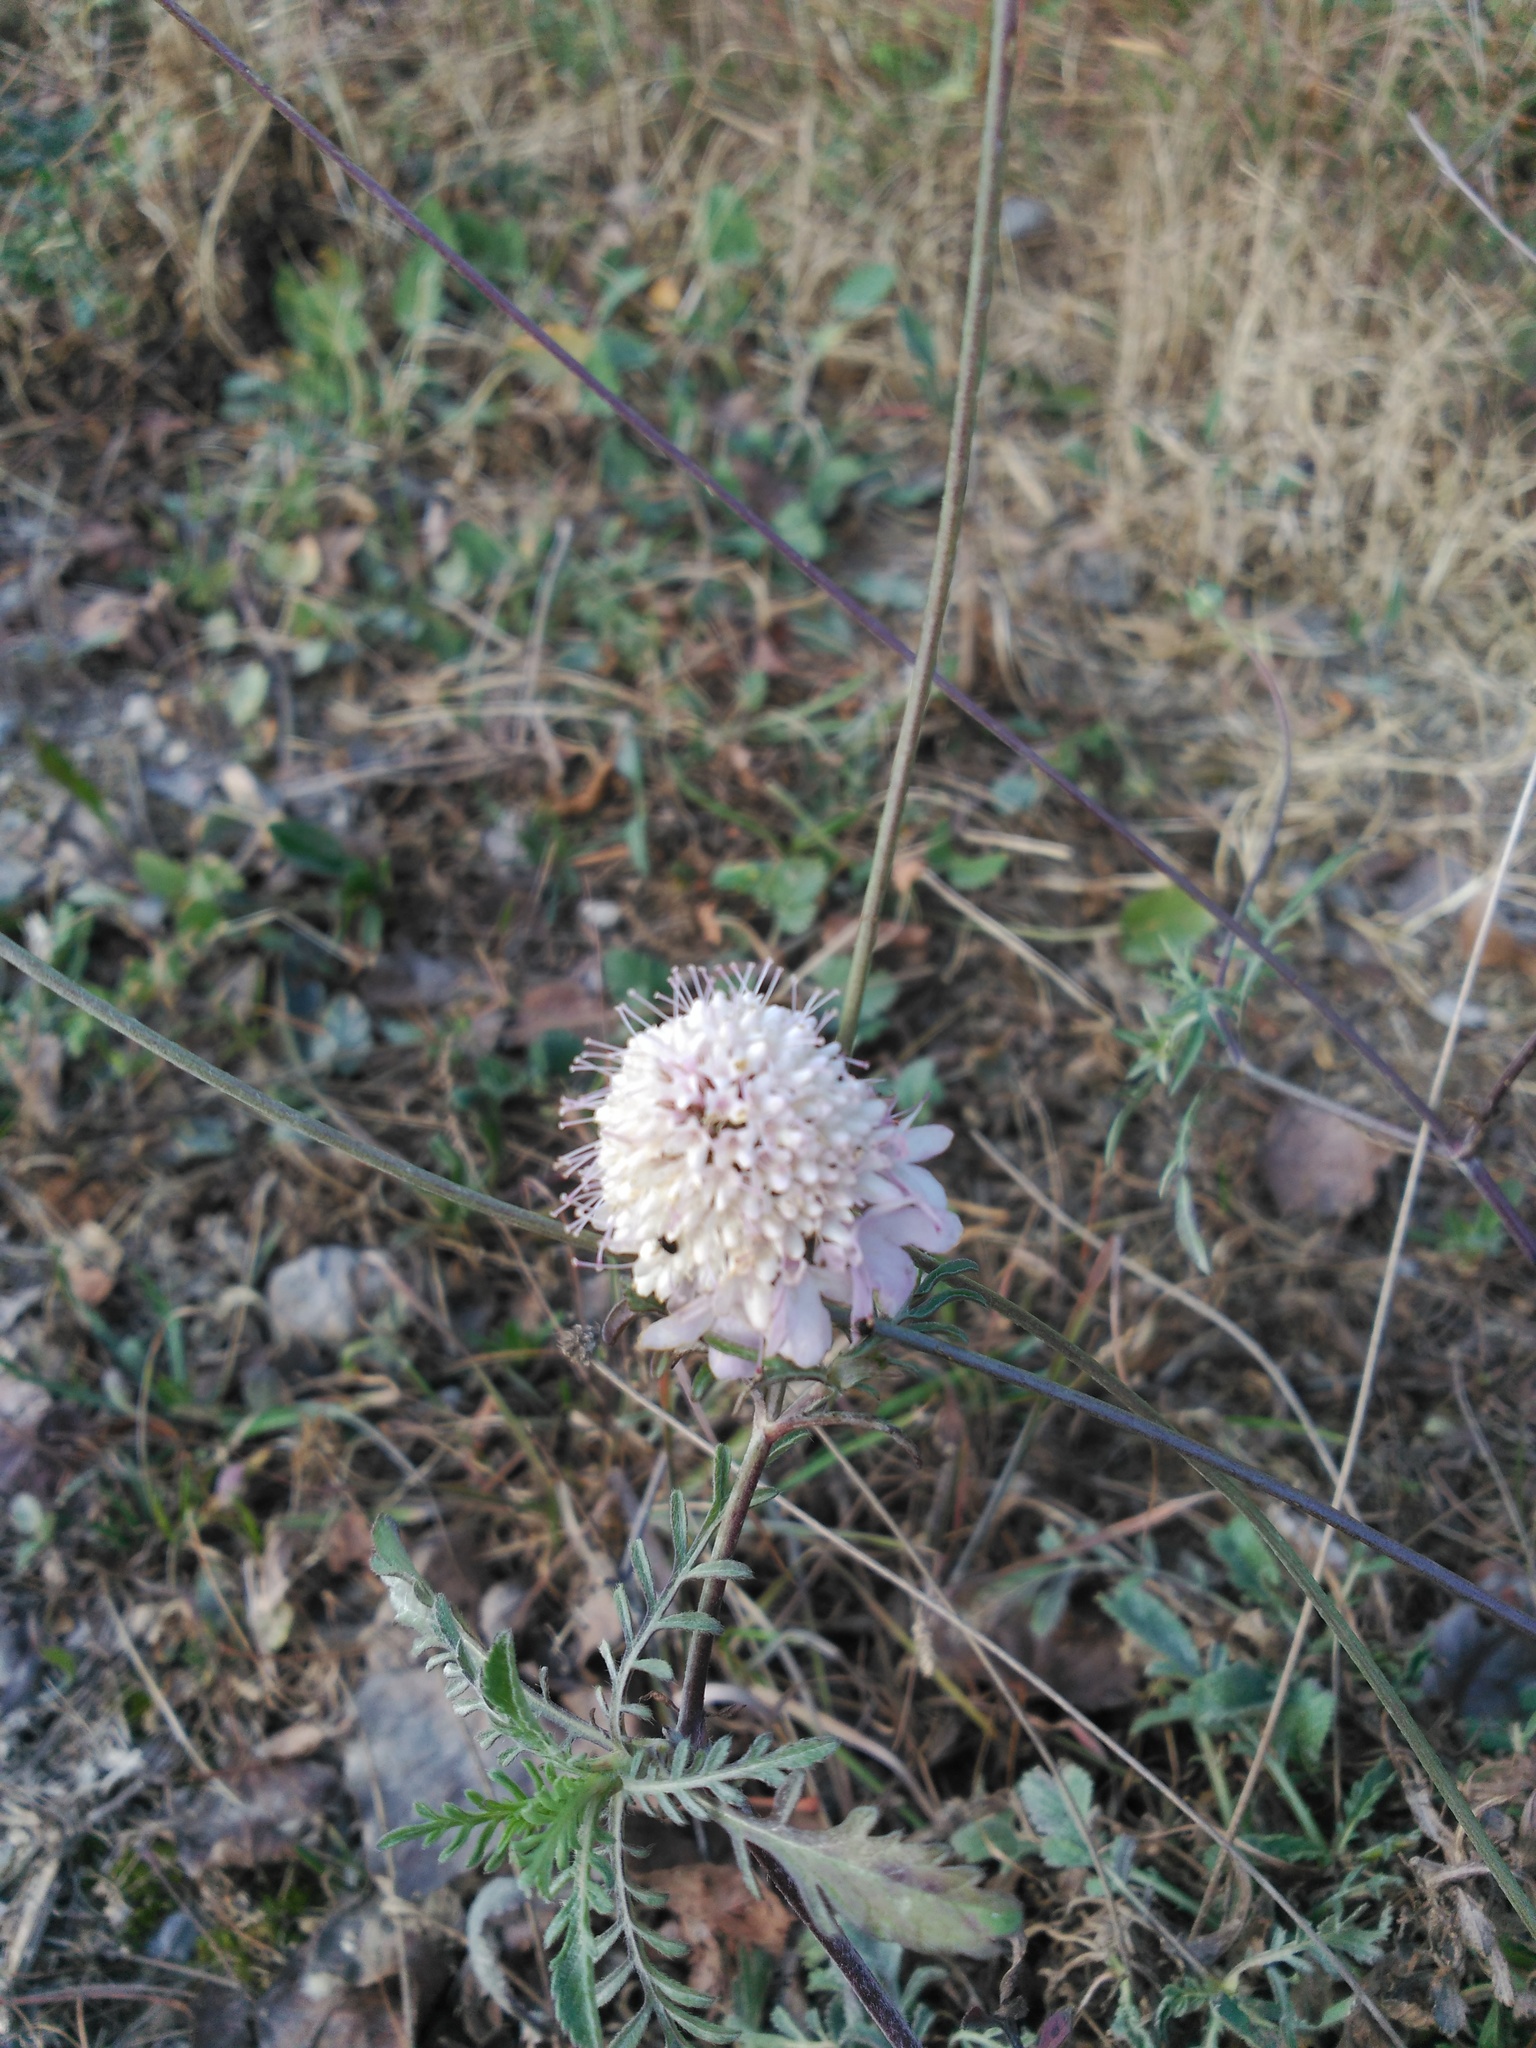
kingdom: Plantae
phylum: Tracheophyta
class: Magnoliopsida
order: Dipsacales
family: Caprifoliaceae
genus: Sixalix
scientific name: Sixalix atropurpurea
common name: Sweet scabious
